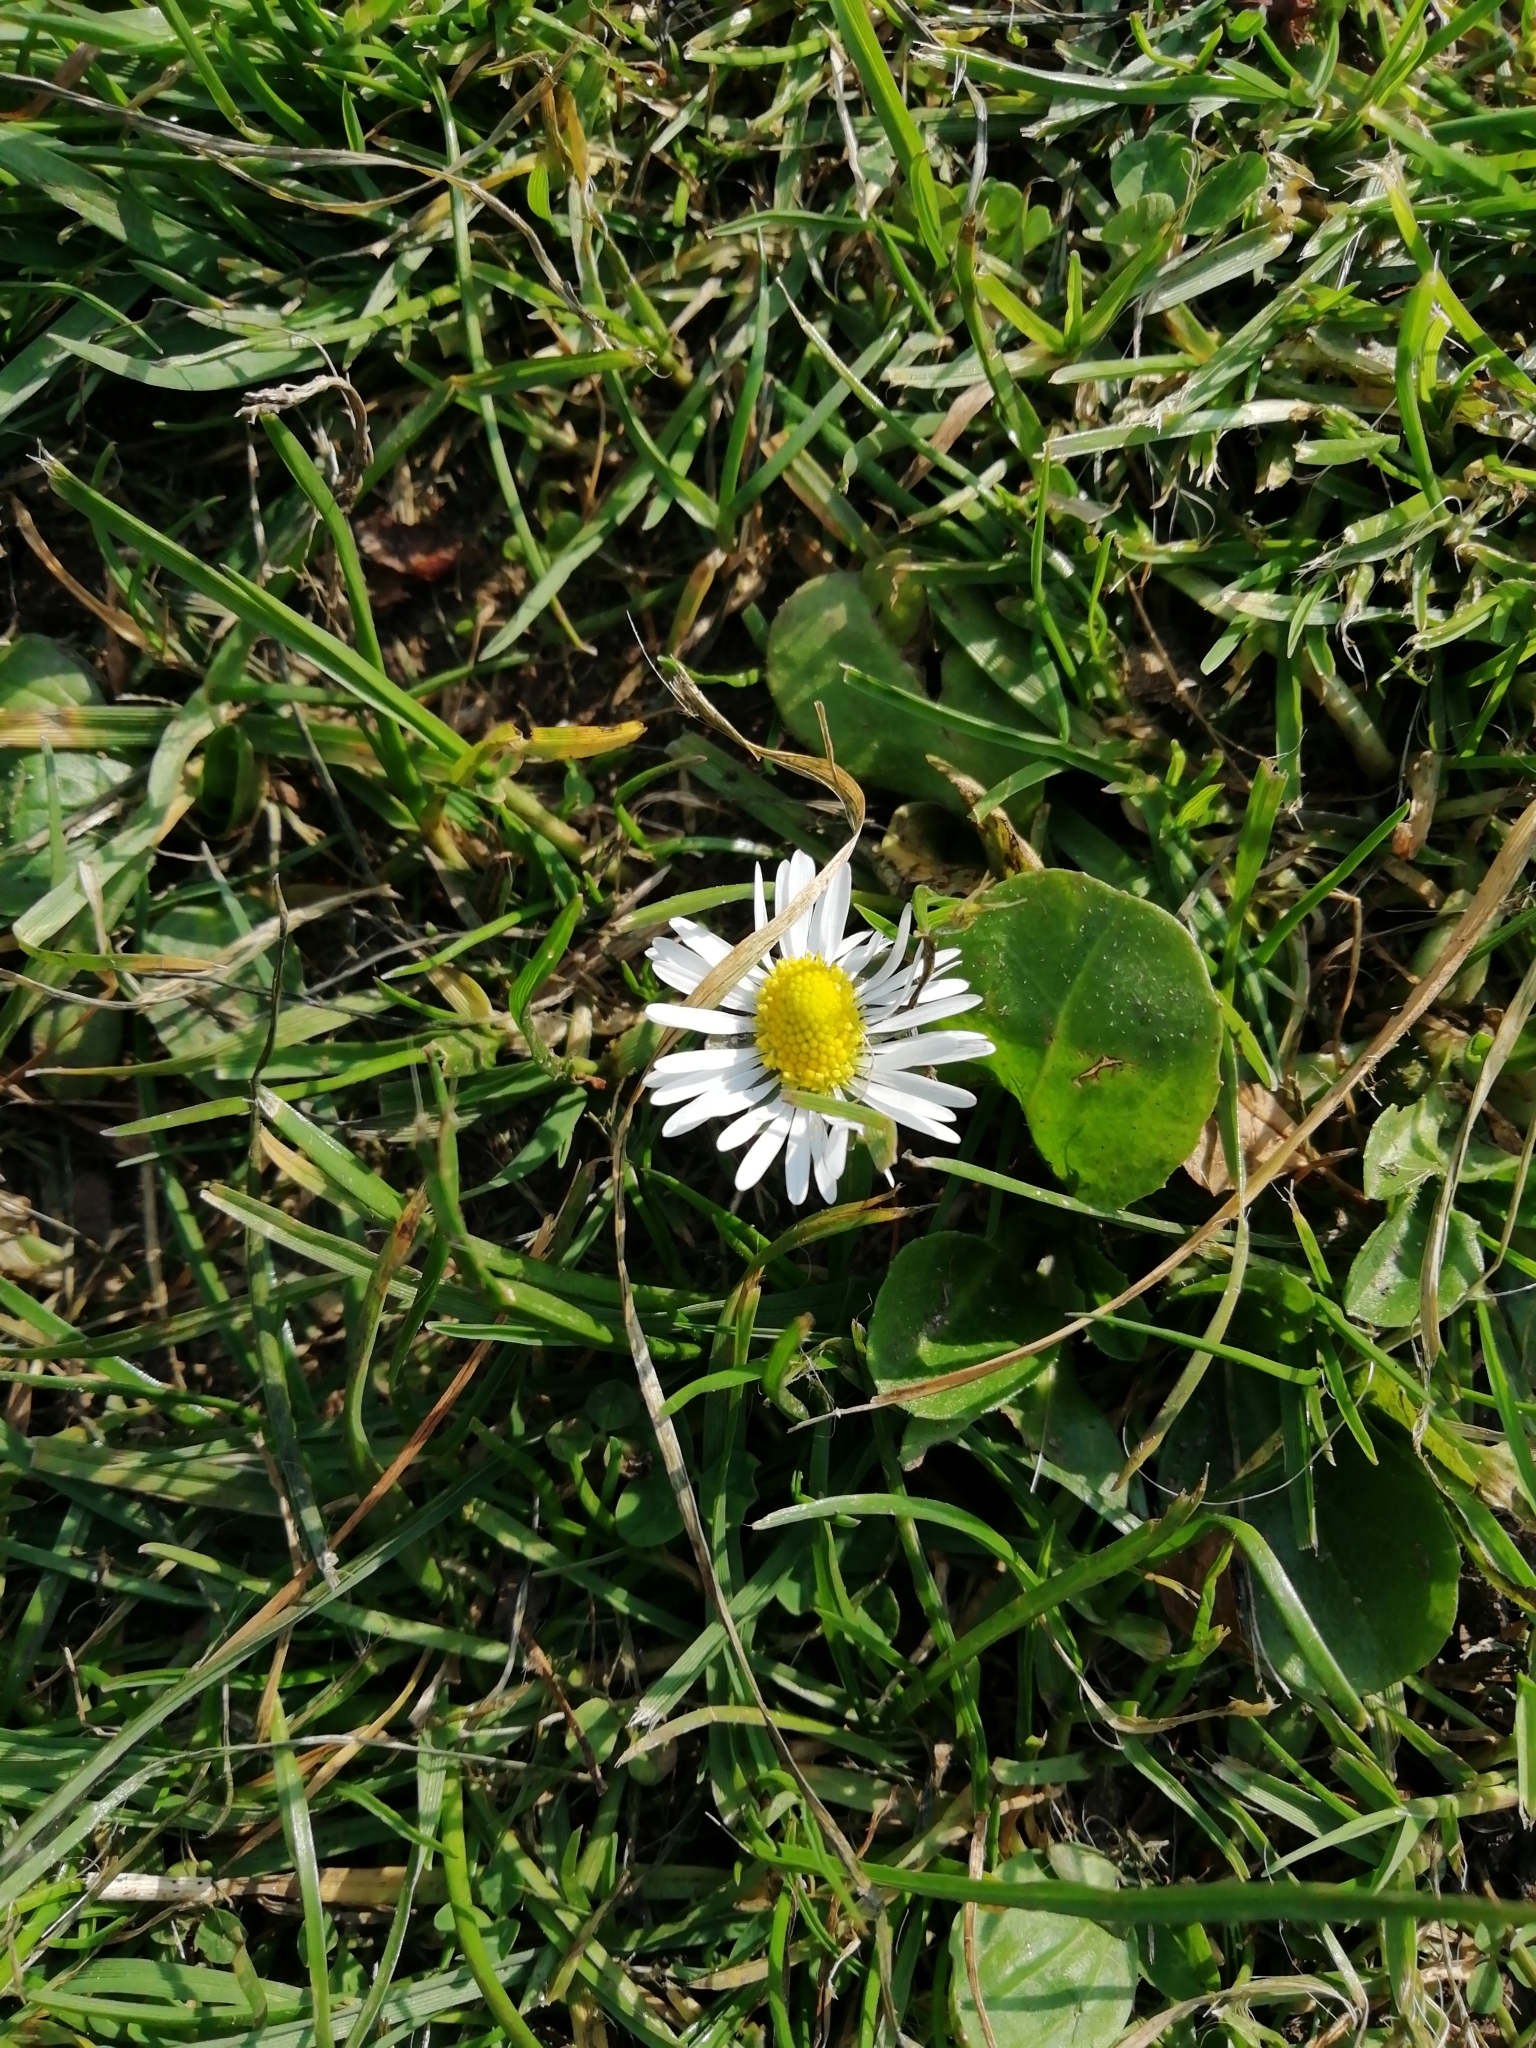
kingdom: Plantae
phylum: Tracheophyta
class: Magnoliopsida
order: Asterales
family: Asteraceae
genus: Bellis
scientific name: Bellis perennis
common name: Lawndaisy
